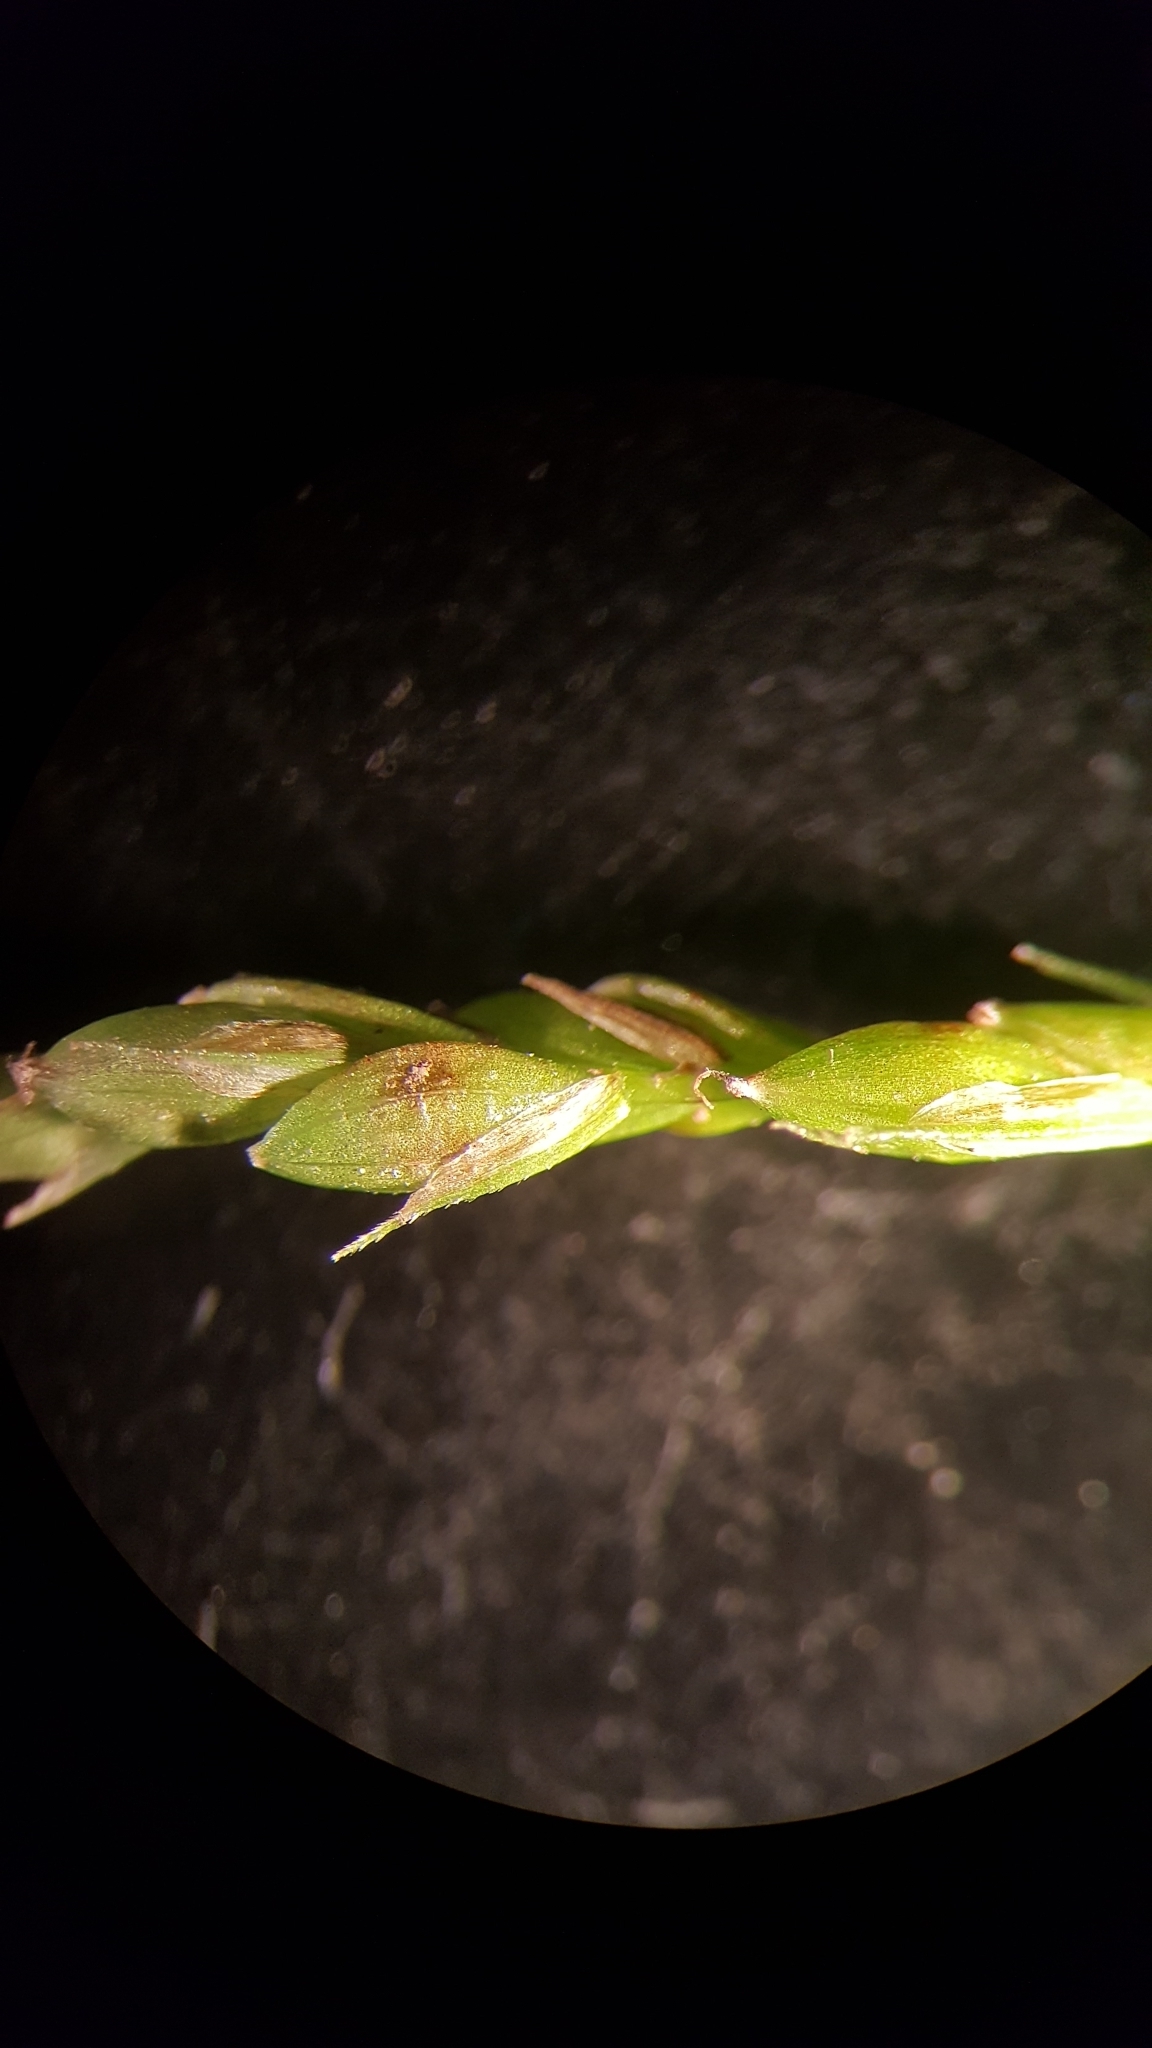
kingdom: Plantae
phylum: Tracheophyta
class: Liliopsida
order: Poales
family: Cyperaceae
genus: Carex
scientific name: Carex gracillima
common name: Graceful sedge
